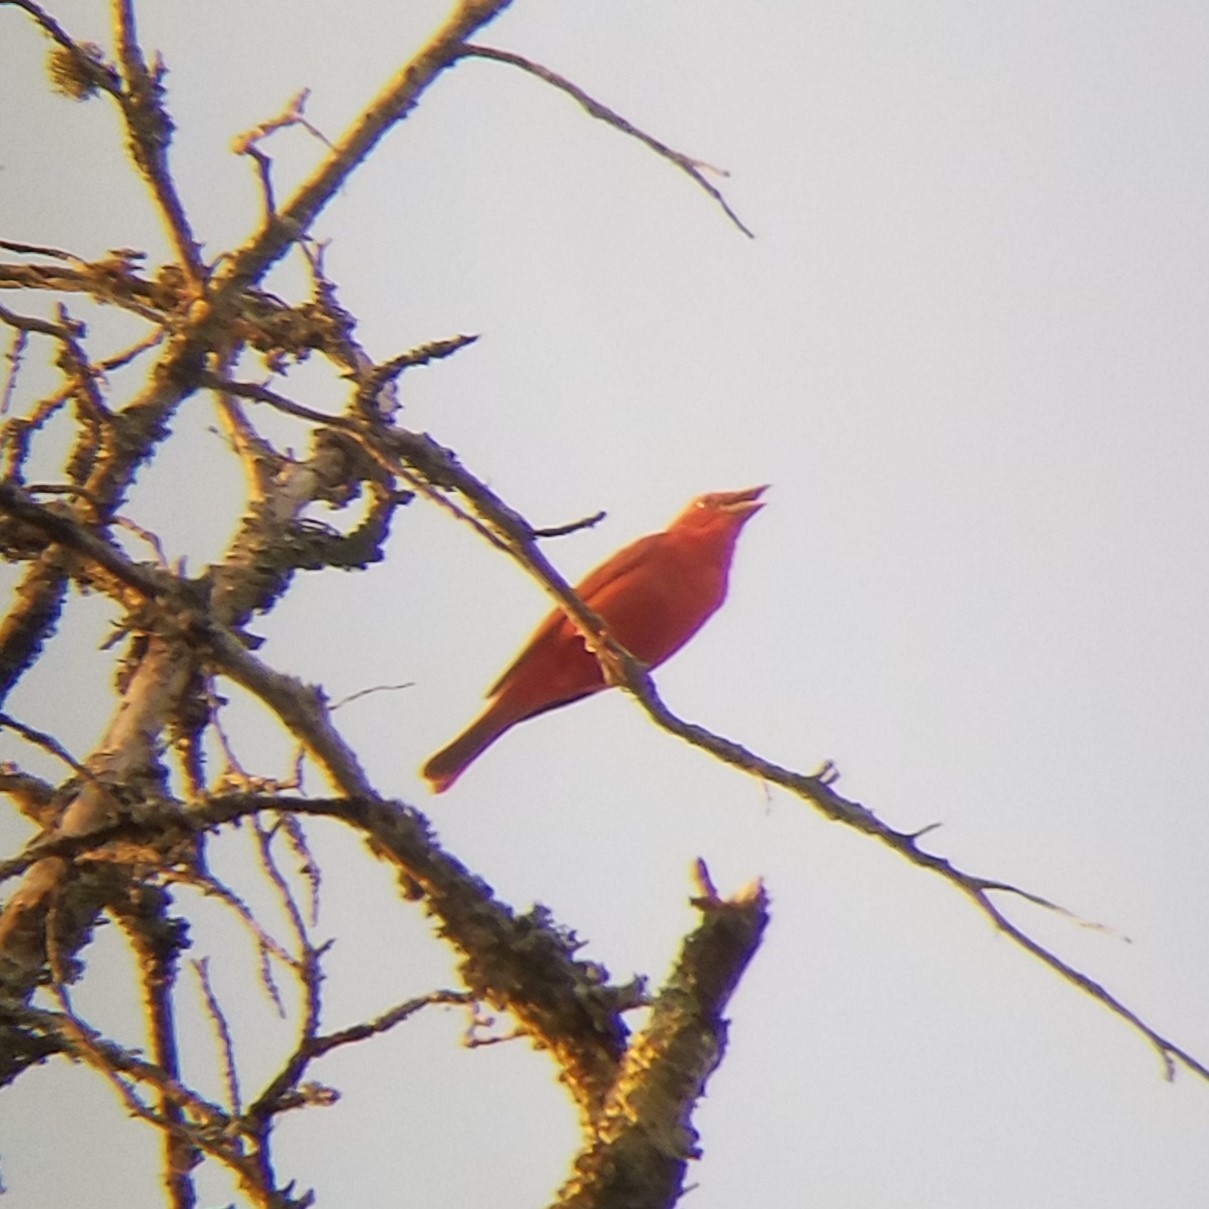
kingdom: Animalia
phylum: Chordata
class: Aves
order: Passeriformes
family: Cardinalidae
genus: Piranga
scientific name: Piranga rubra
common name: Summer tanager
